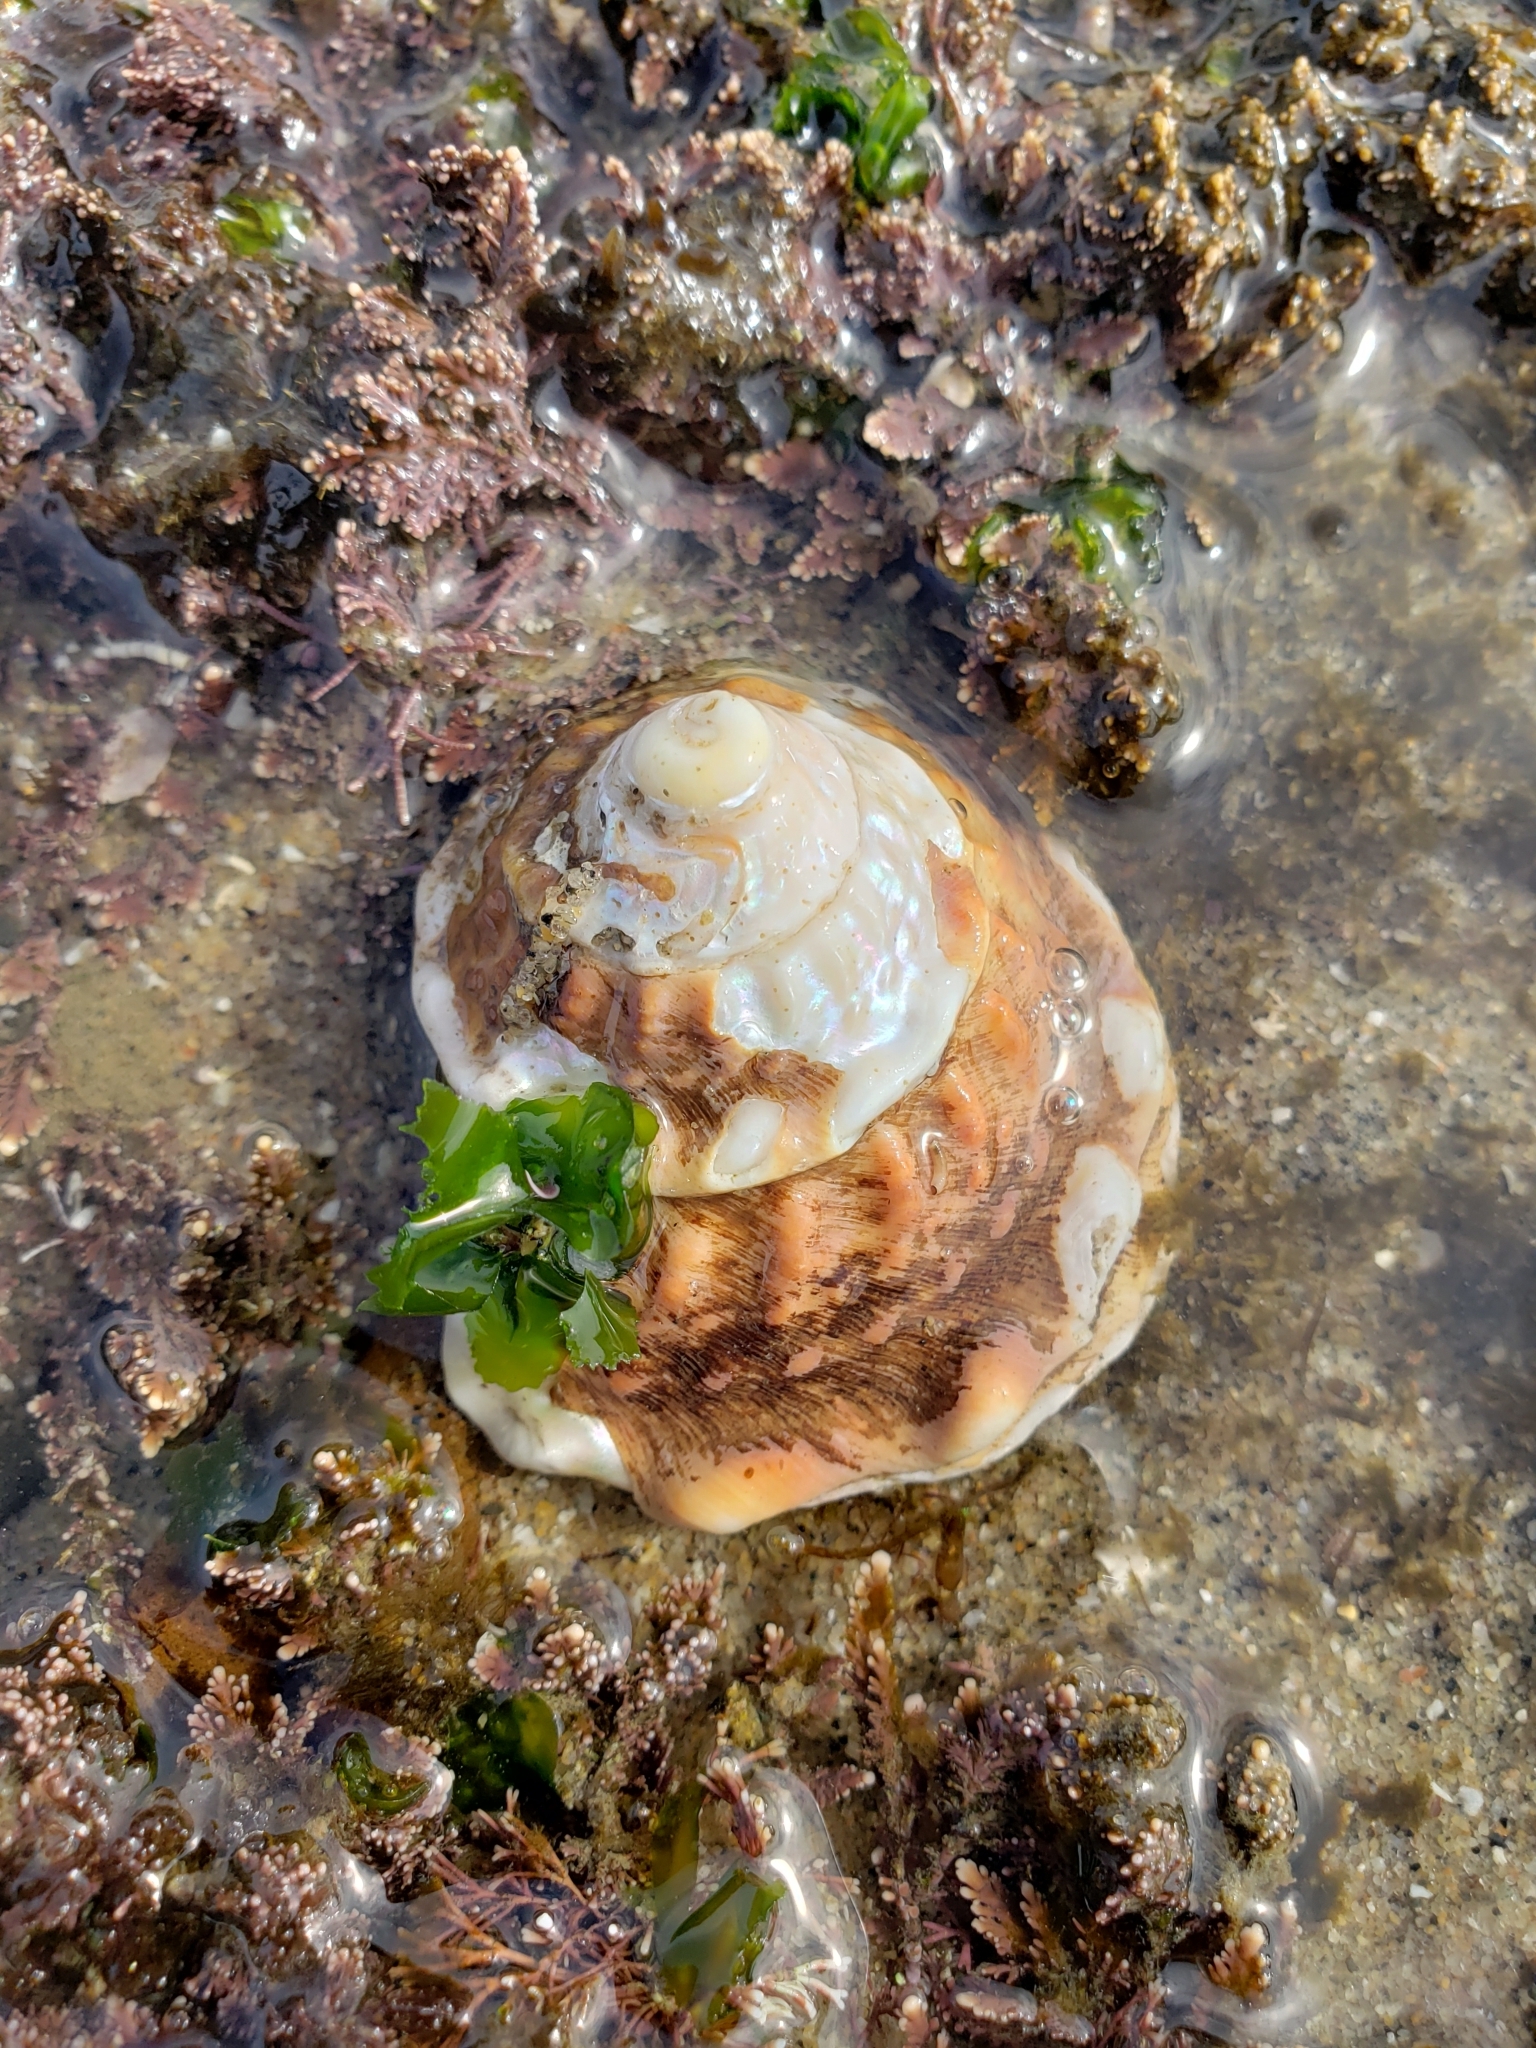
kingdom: Animalia
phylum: Mollusca
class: Gastropoda
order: Trochida
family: Turbinidae
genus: Megastraea
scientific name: Megastraea undosa
